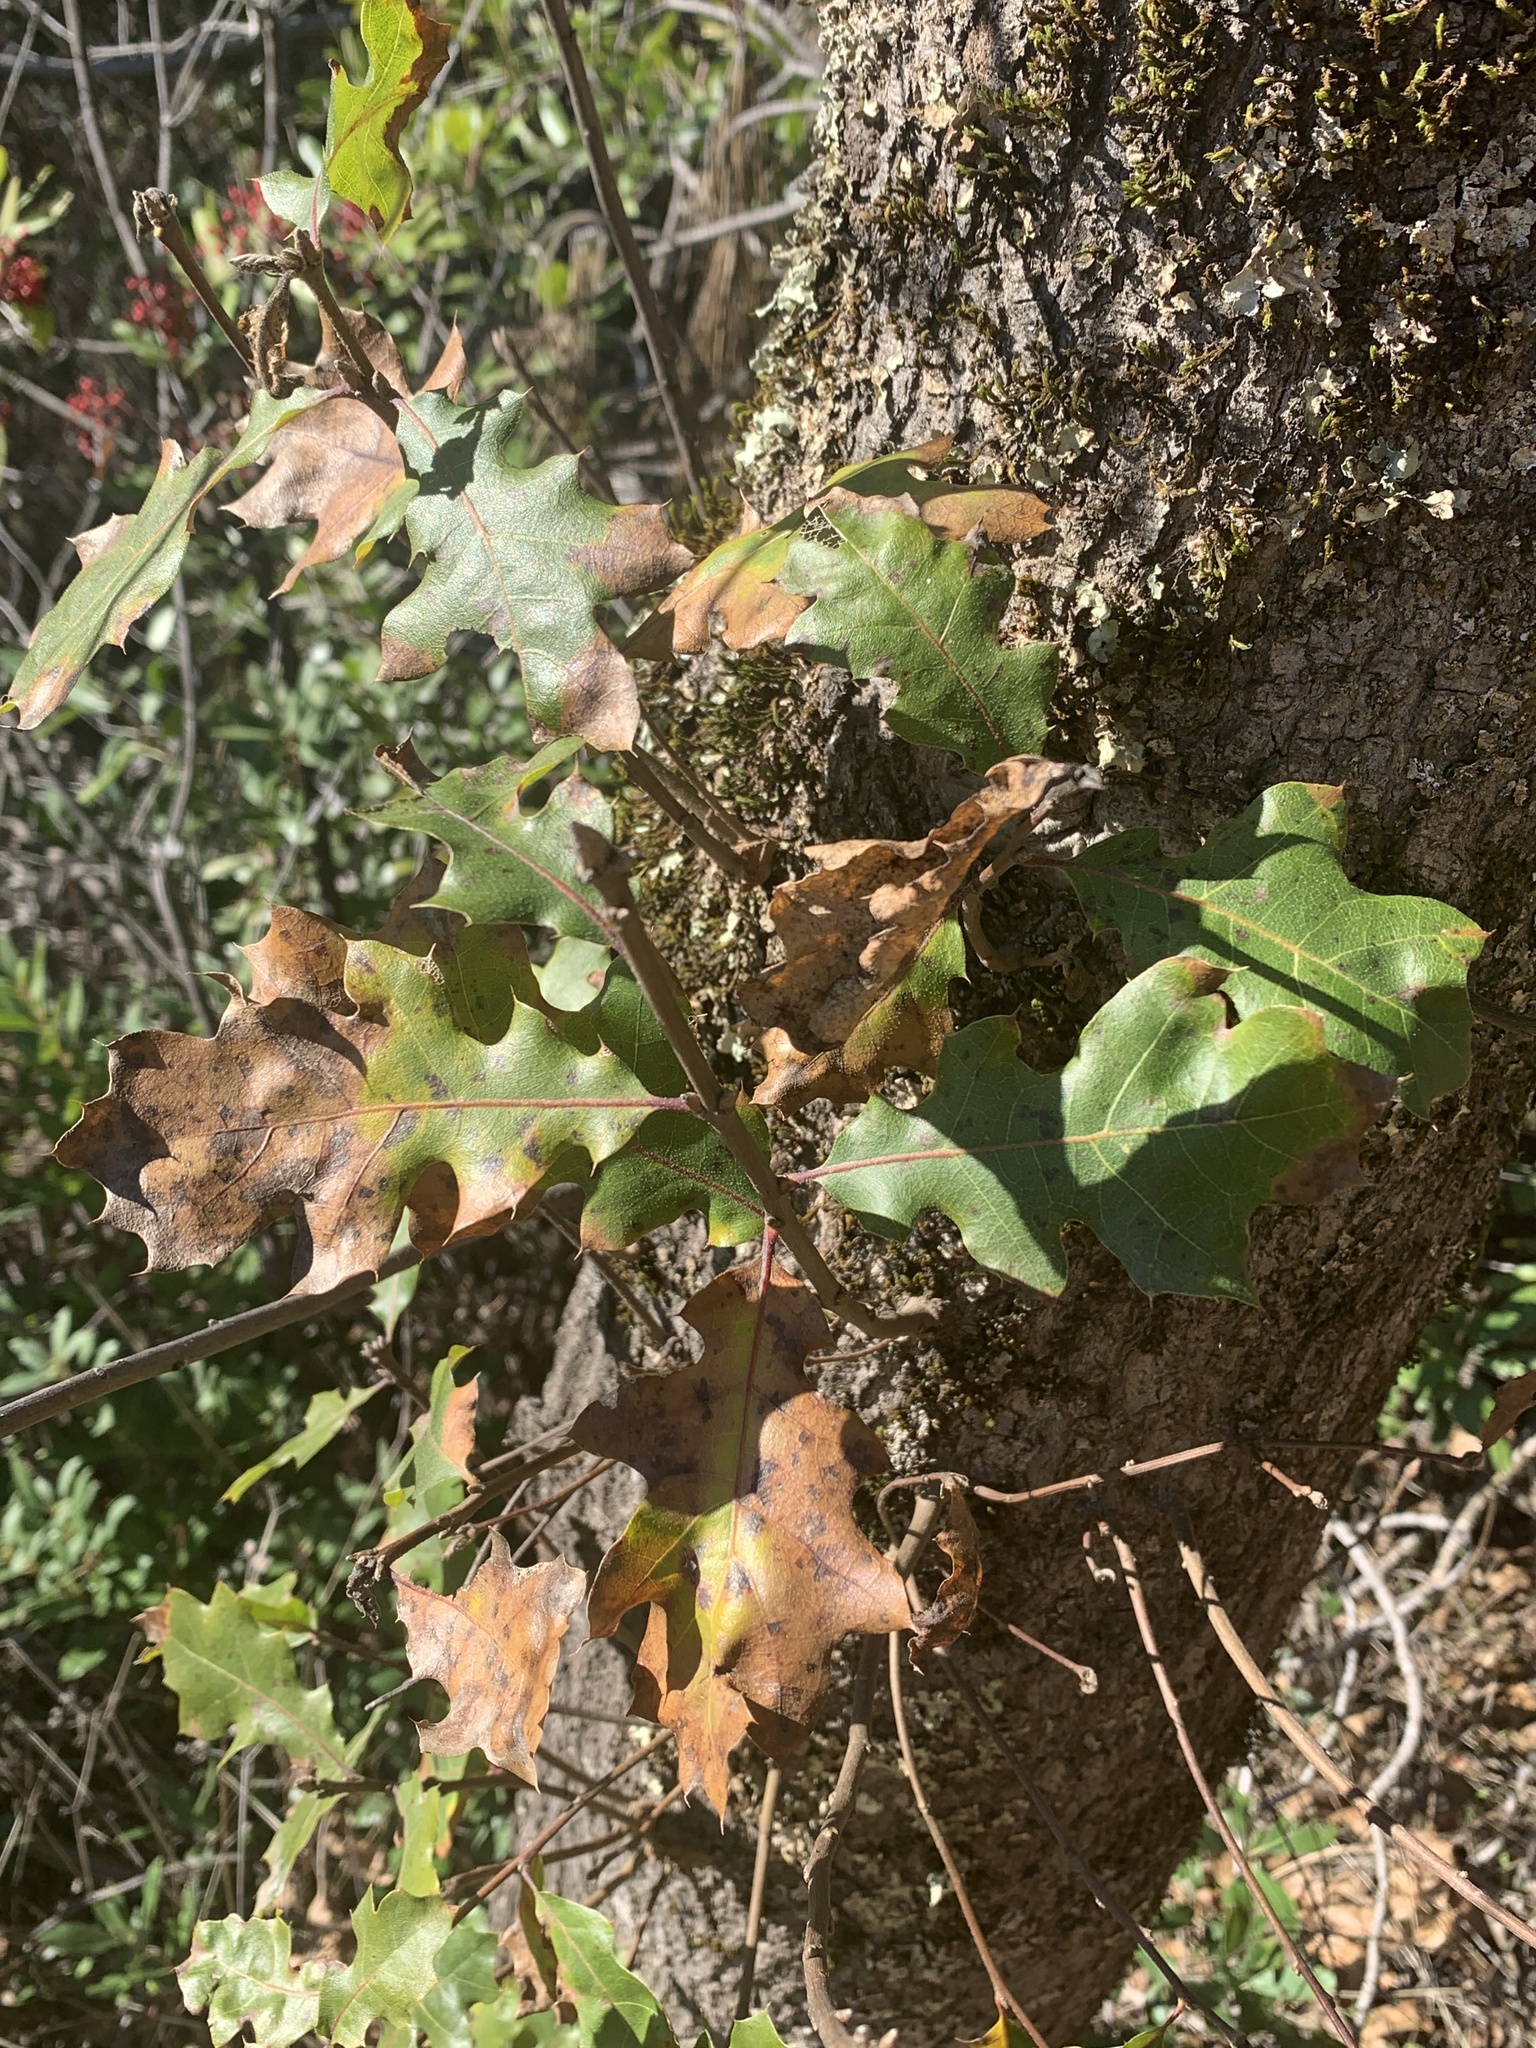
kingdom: Plantae
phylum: Tracheophyta
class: Magnoliopsida
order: Fagales
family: Fagaceae
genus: Quercus
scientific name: Quercus kelloggii
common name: California black oak
